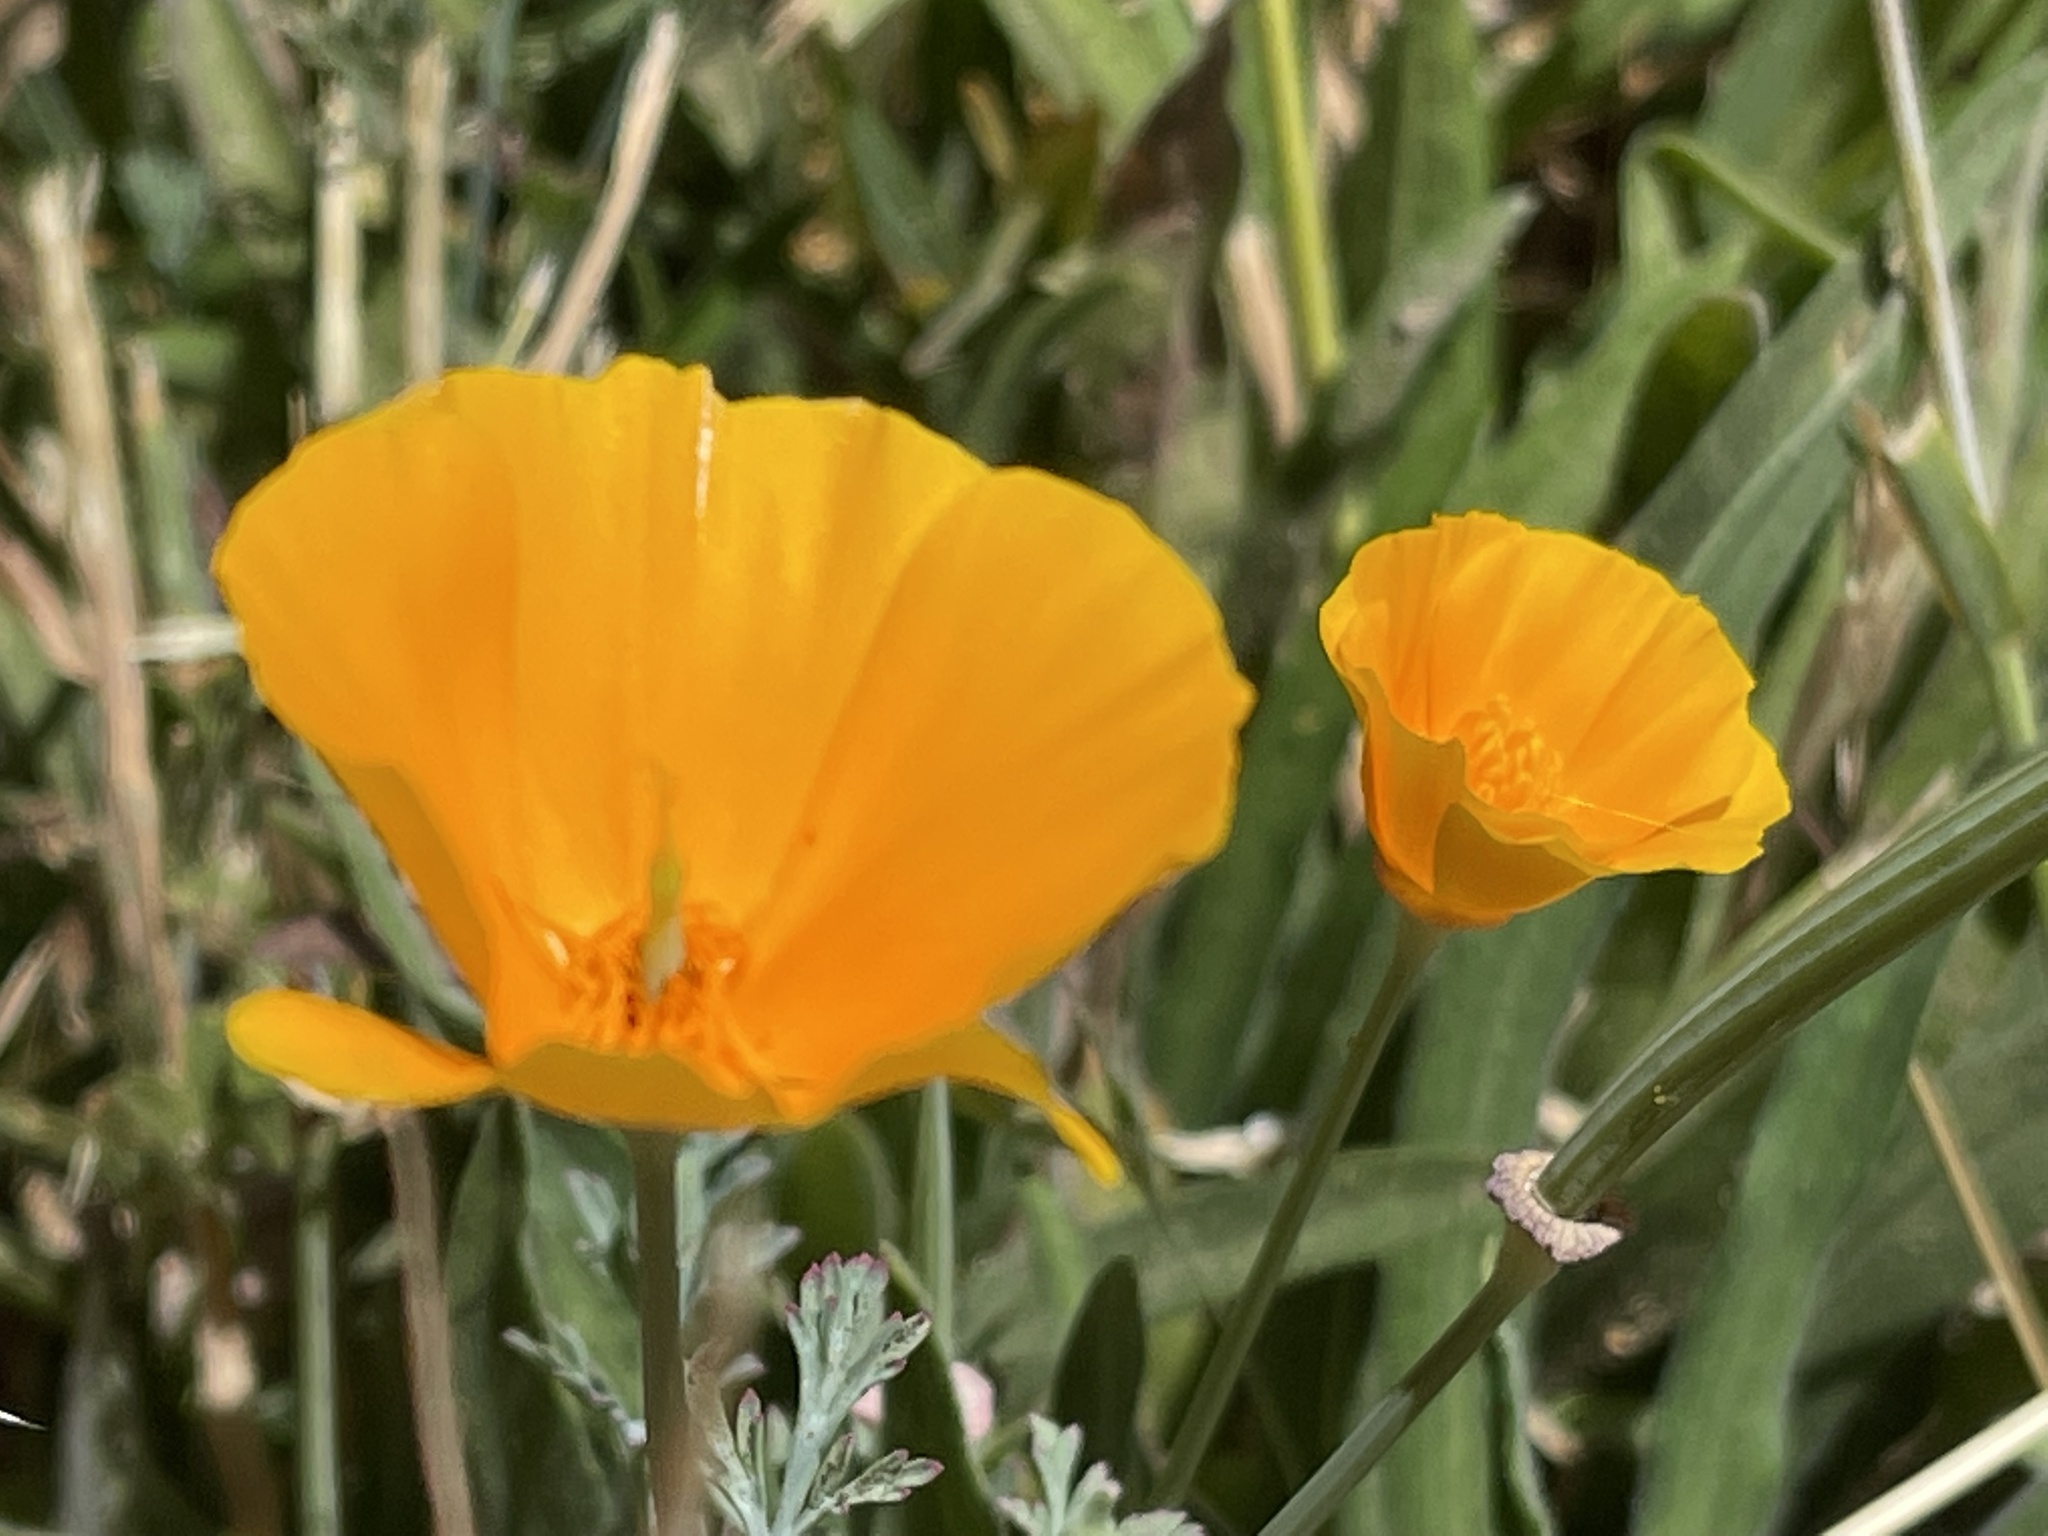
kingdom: Plantae
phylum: Tracheophyta
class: Magnoliopsida
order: Ranunculales
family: Papaveraceae
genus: Eschscholzia
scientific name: Eschscholzia californica
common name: California poppy
